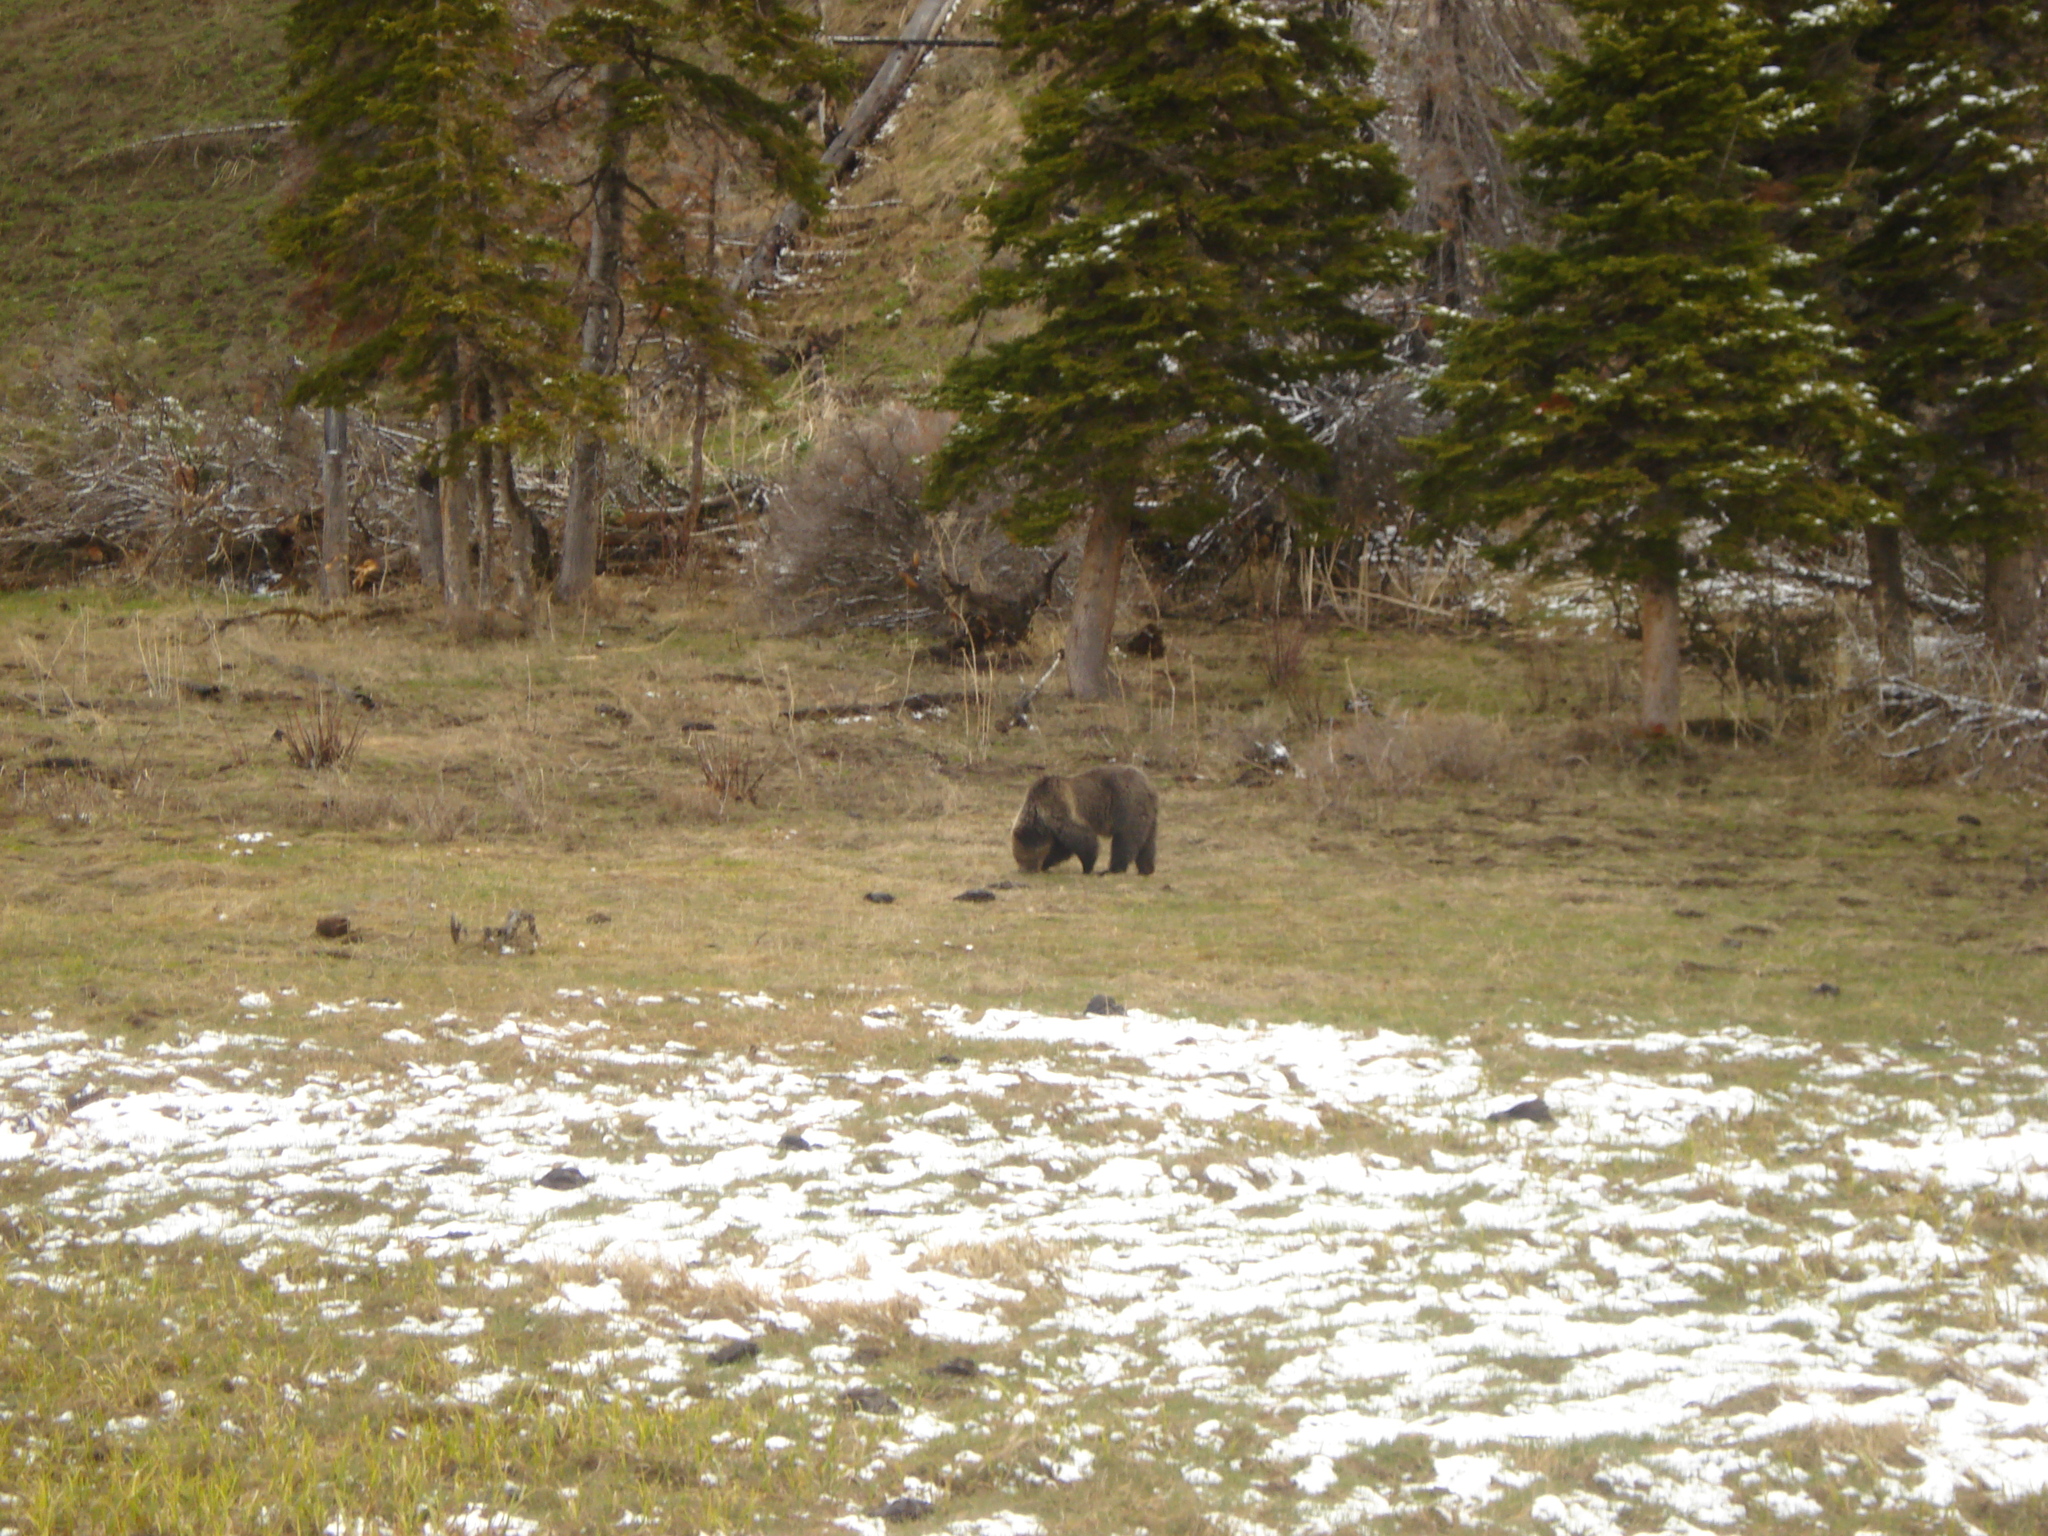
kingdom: Animalia
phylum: Chordata
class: Mammalia
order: Carnivora
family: Ursidae
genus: Ursus
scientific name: Ursus arctos
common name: Brown bear
